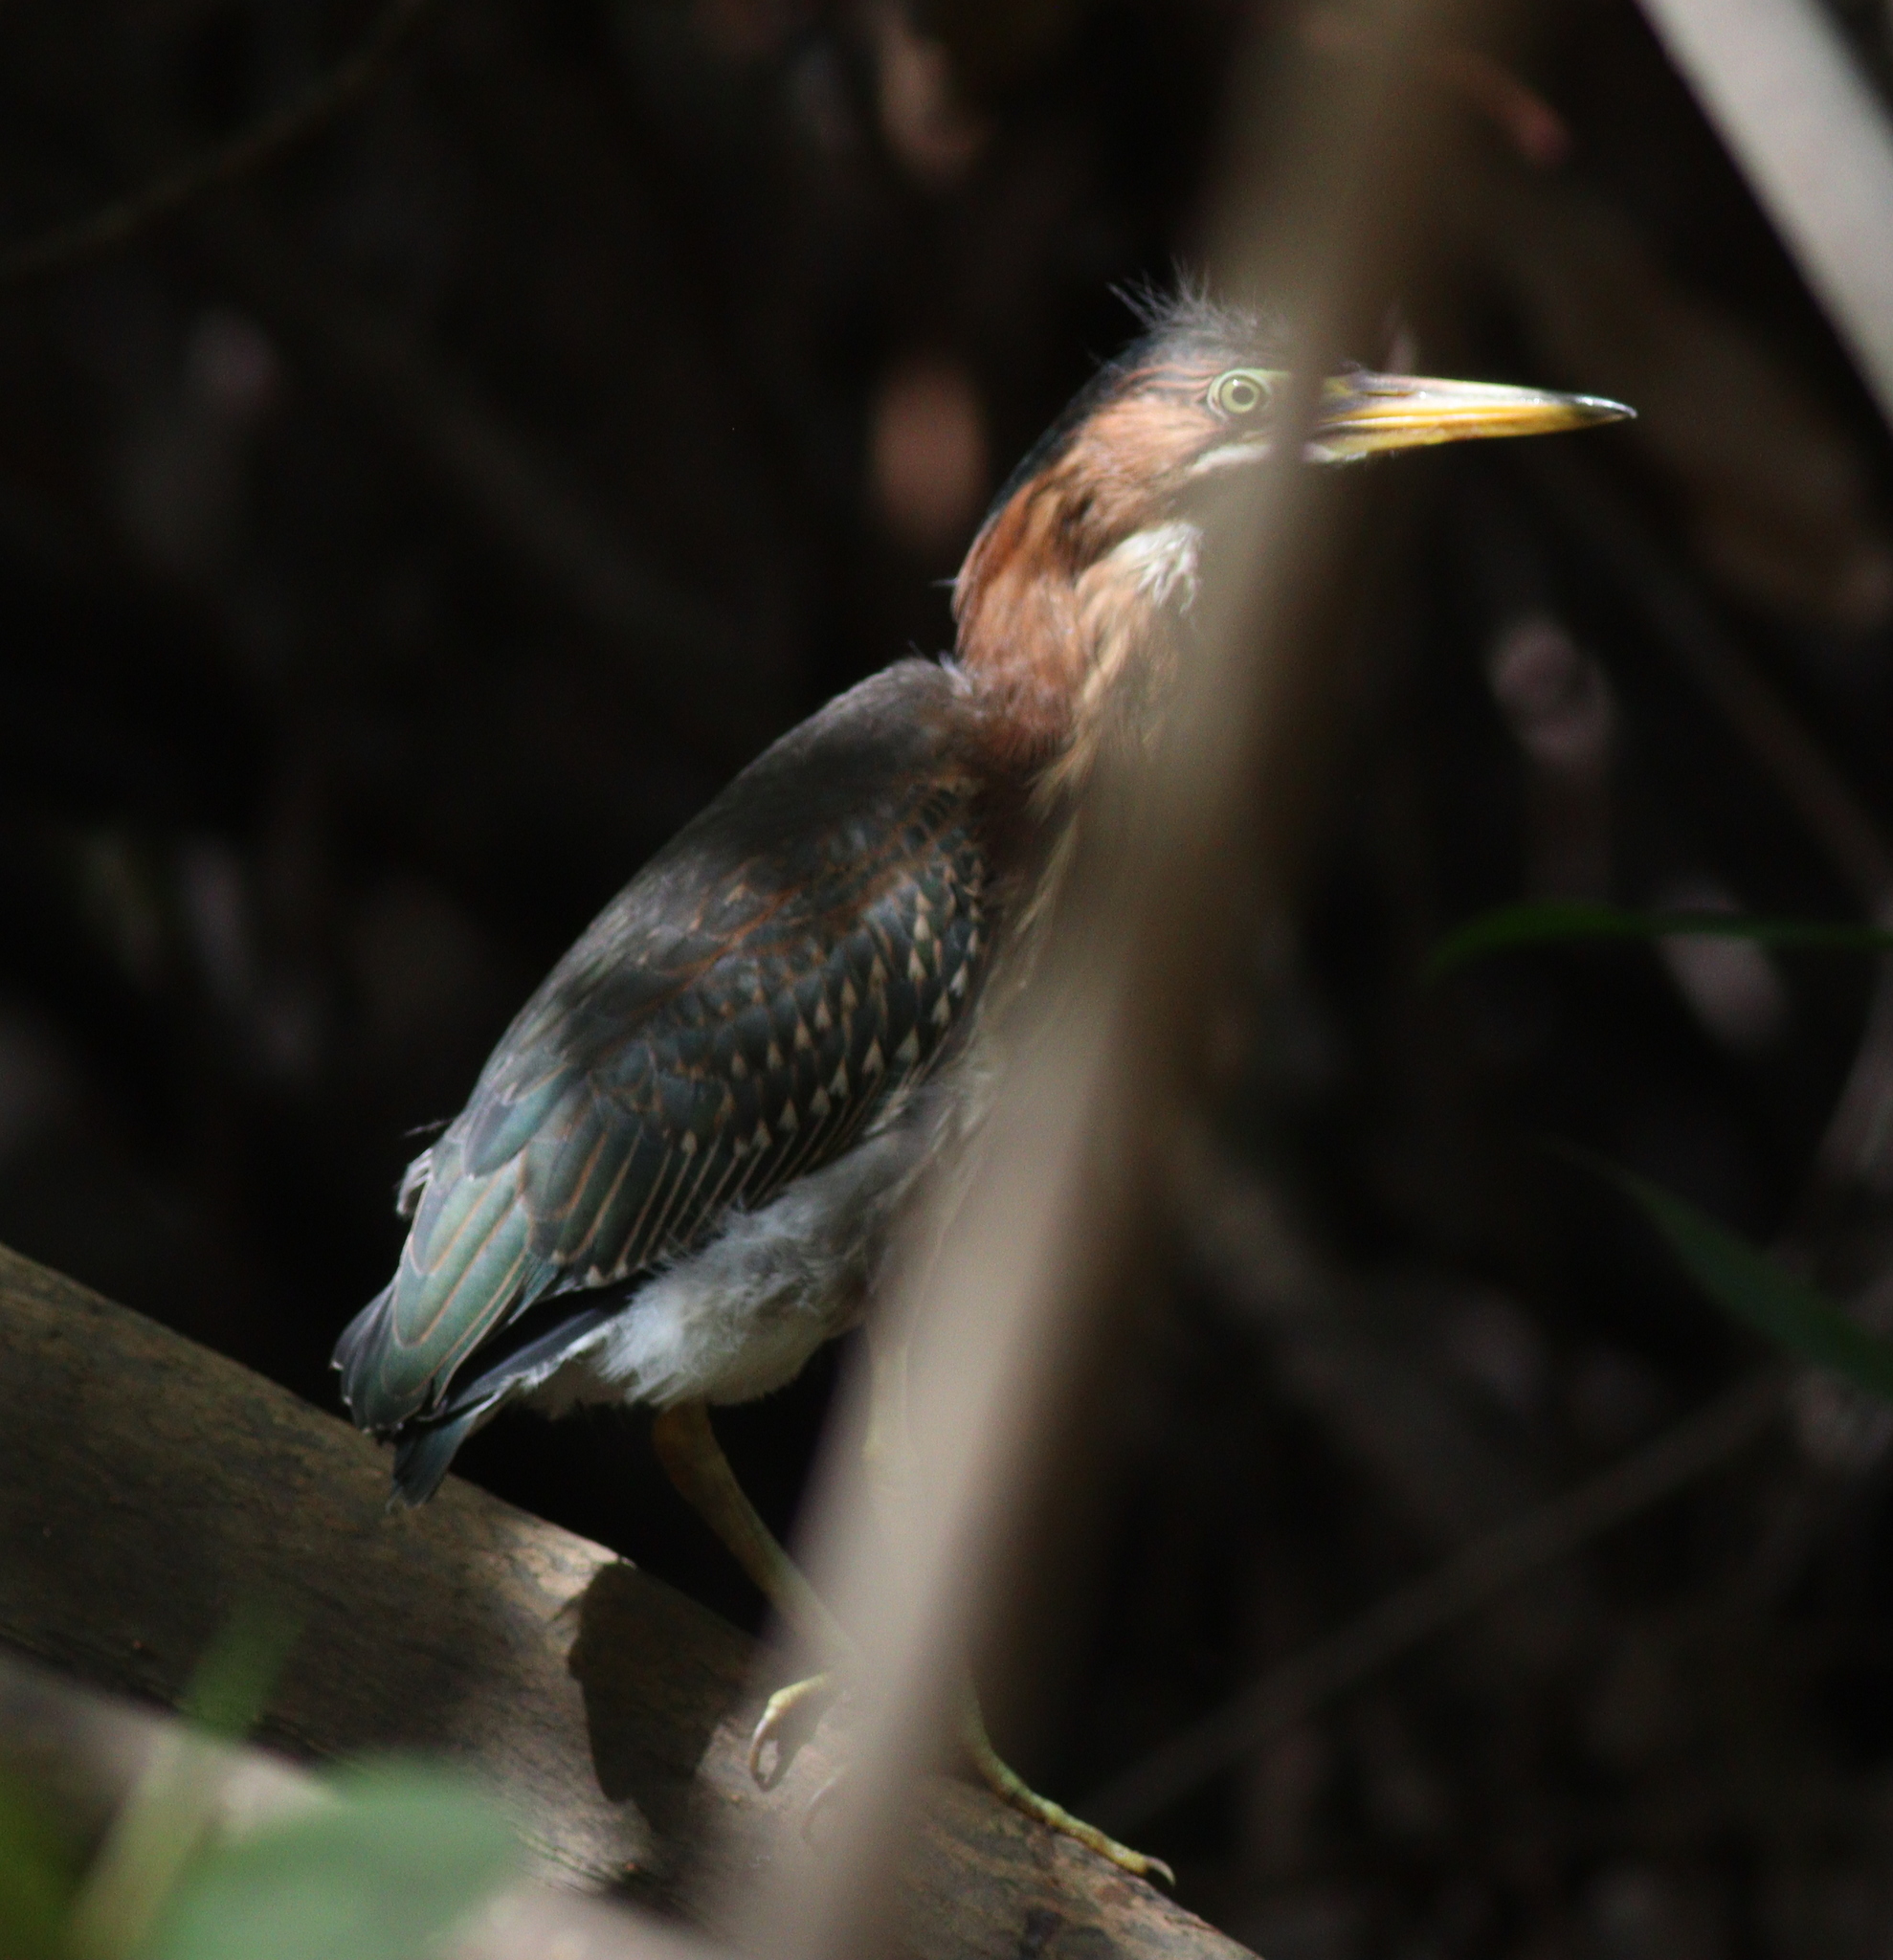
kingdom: Animalia
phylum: Chordata
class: Aves
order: Pelecaniformes
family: Ardeidae
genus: Butorides
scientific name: Butorides virescens
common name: Green heron
